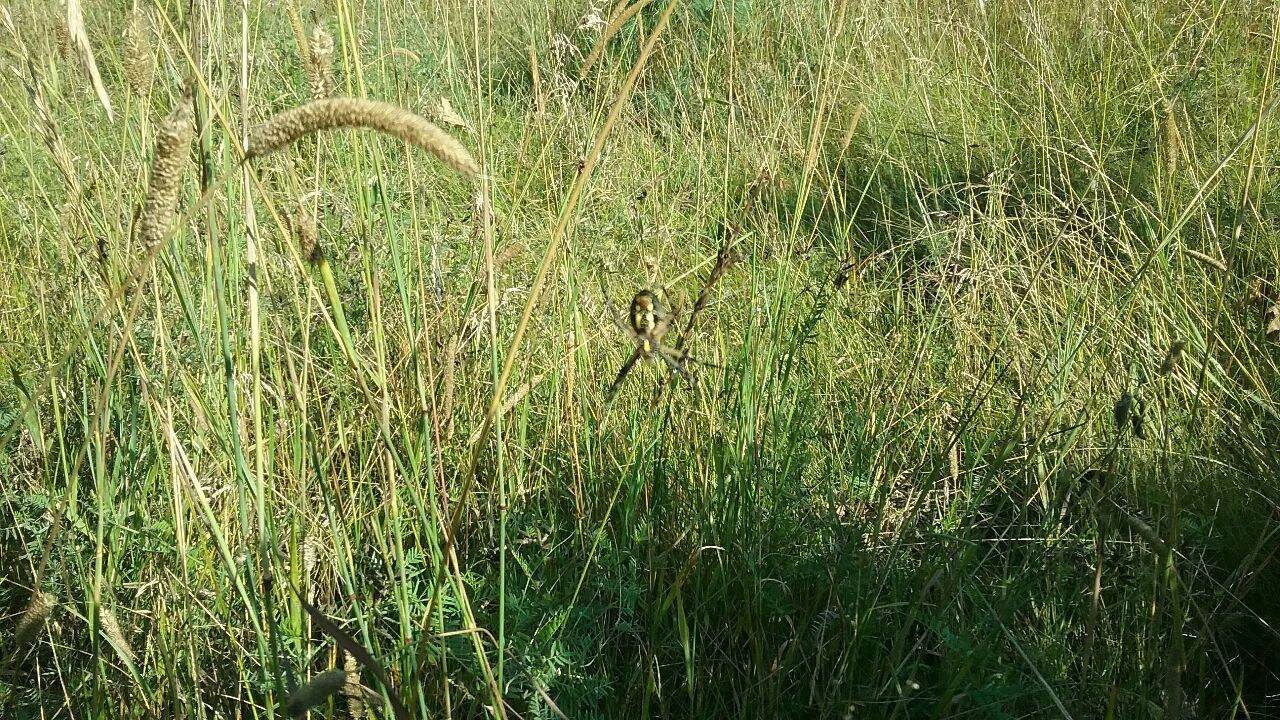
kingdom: Animalia
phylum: Arthropoda
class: Arachnida
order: Araneae
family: Araneidae
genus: Argiope
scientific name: Argiope aurantia
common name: Orb weavers
